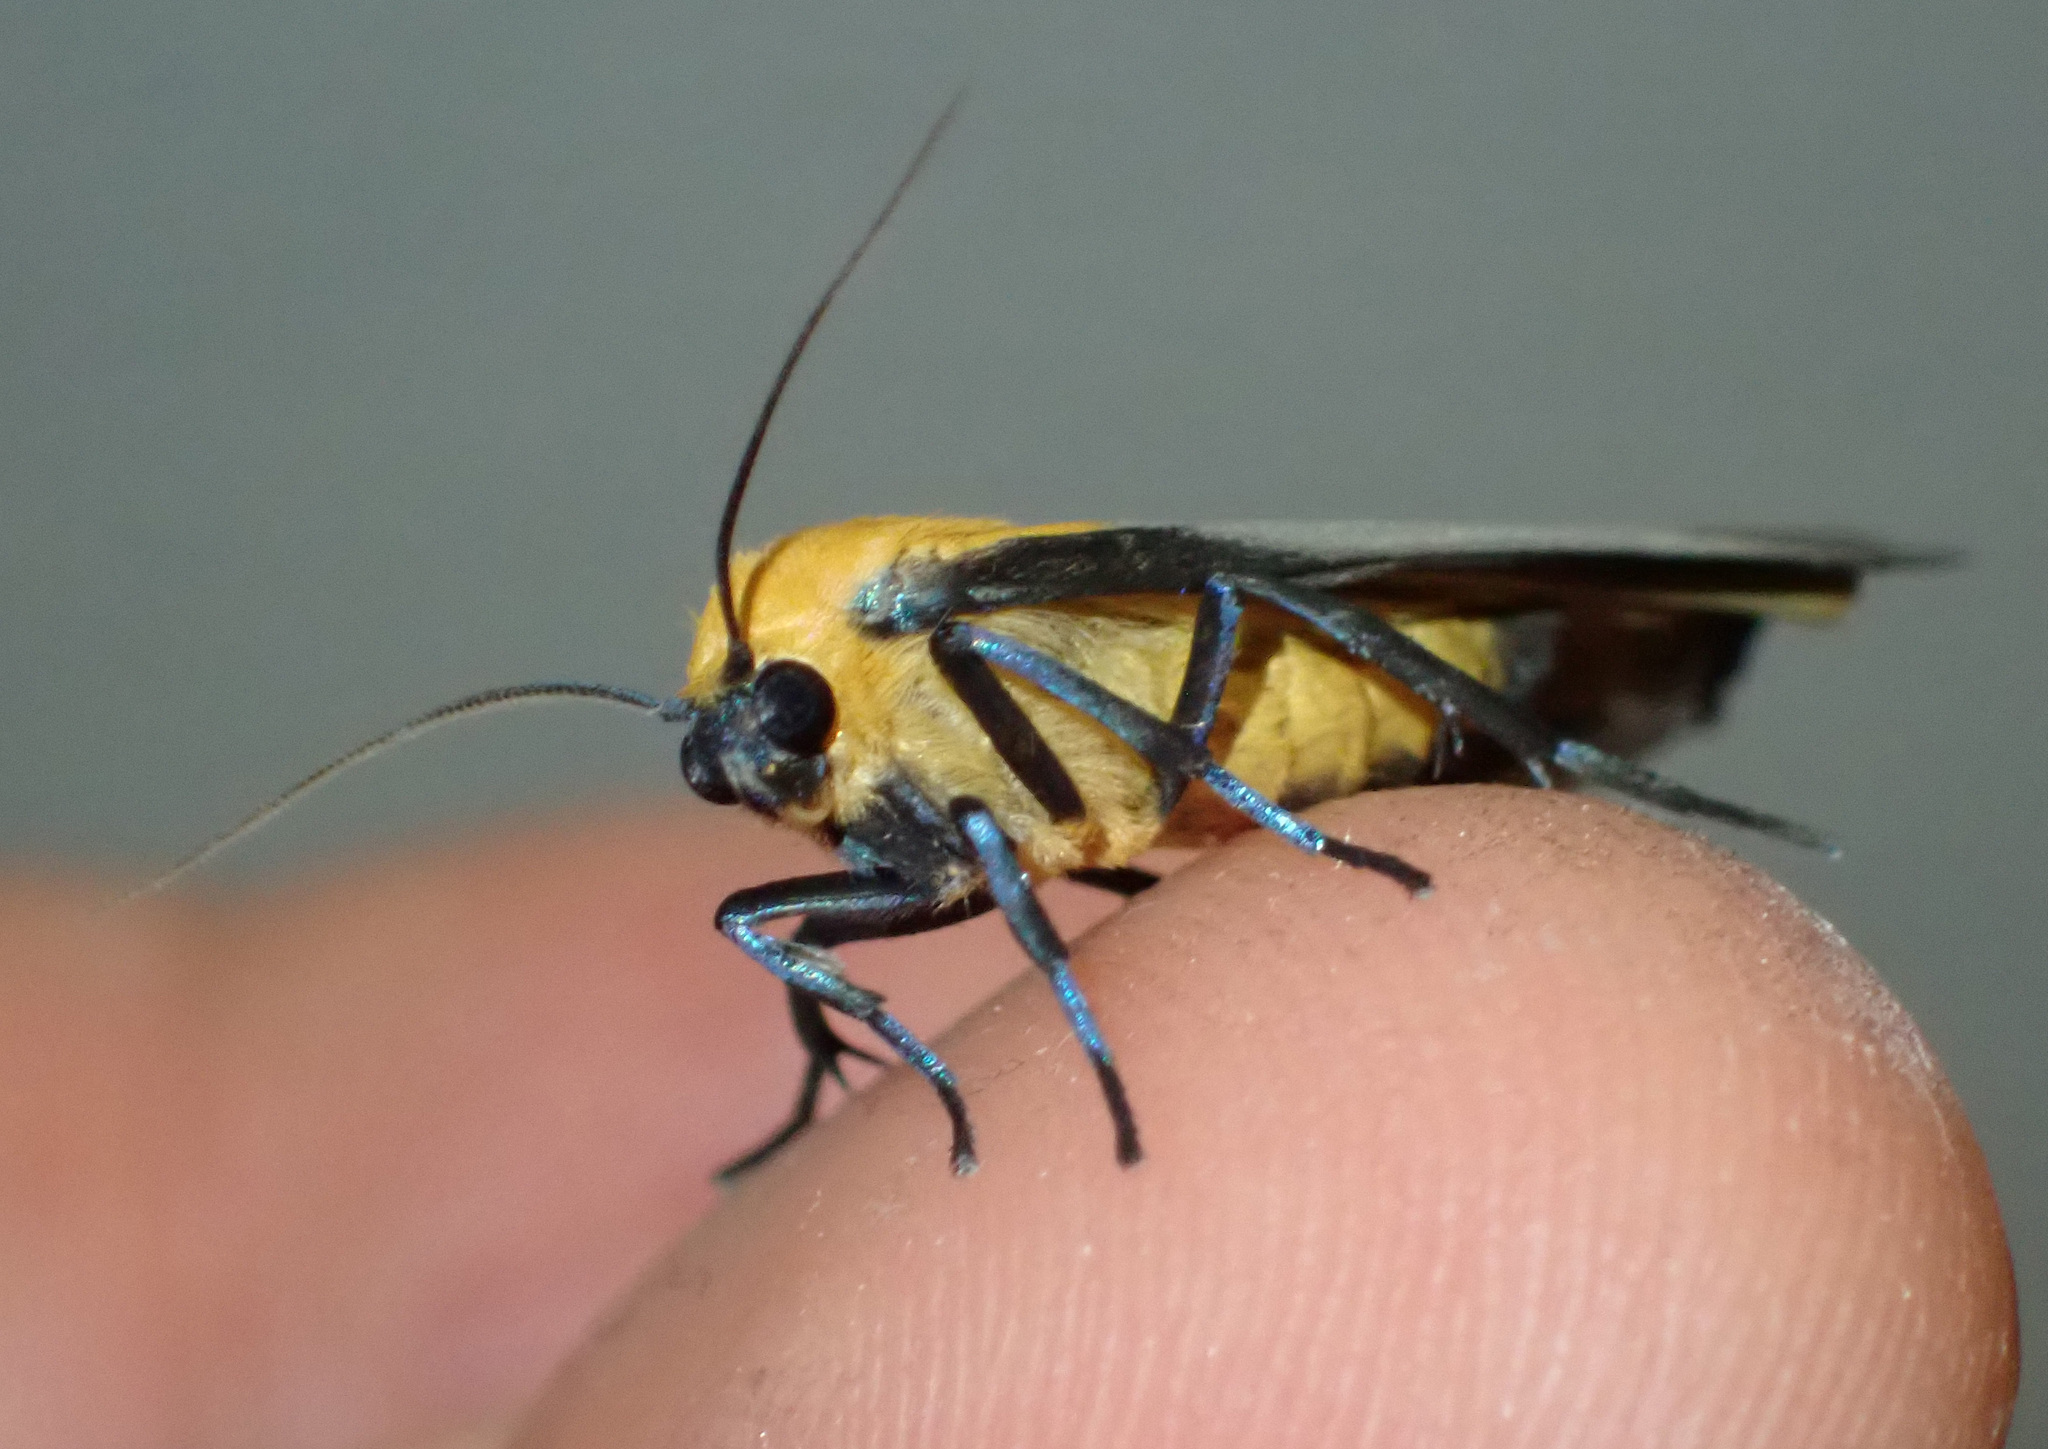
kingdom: Animalia
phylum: Arthropoda
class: Insecta
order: Lepidoptera
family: Erebidae
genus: Lithosia
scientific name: Lithosia quadra
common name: Four-spotted footman
